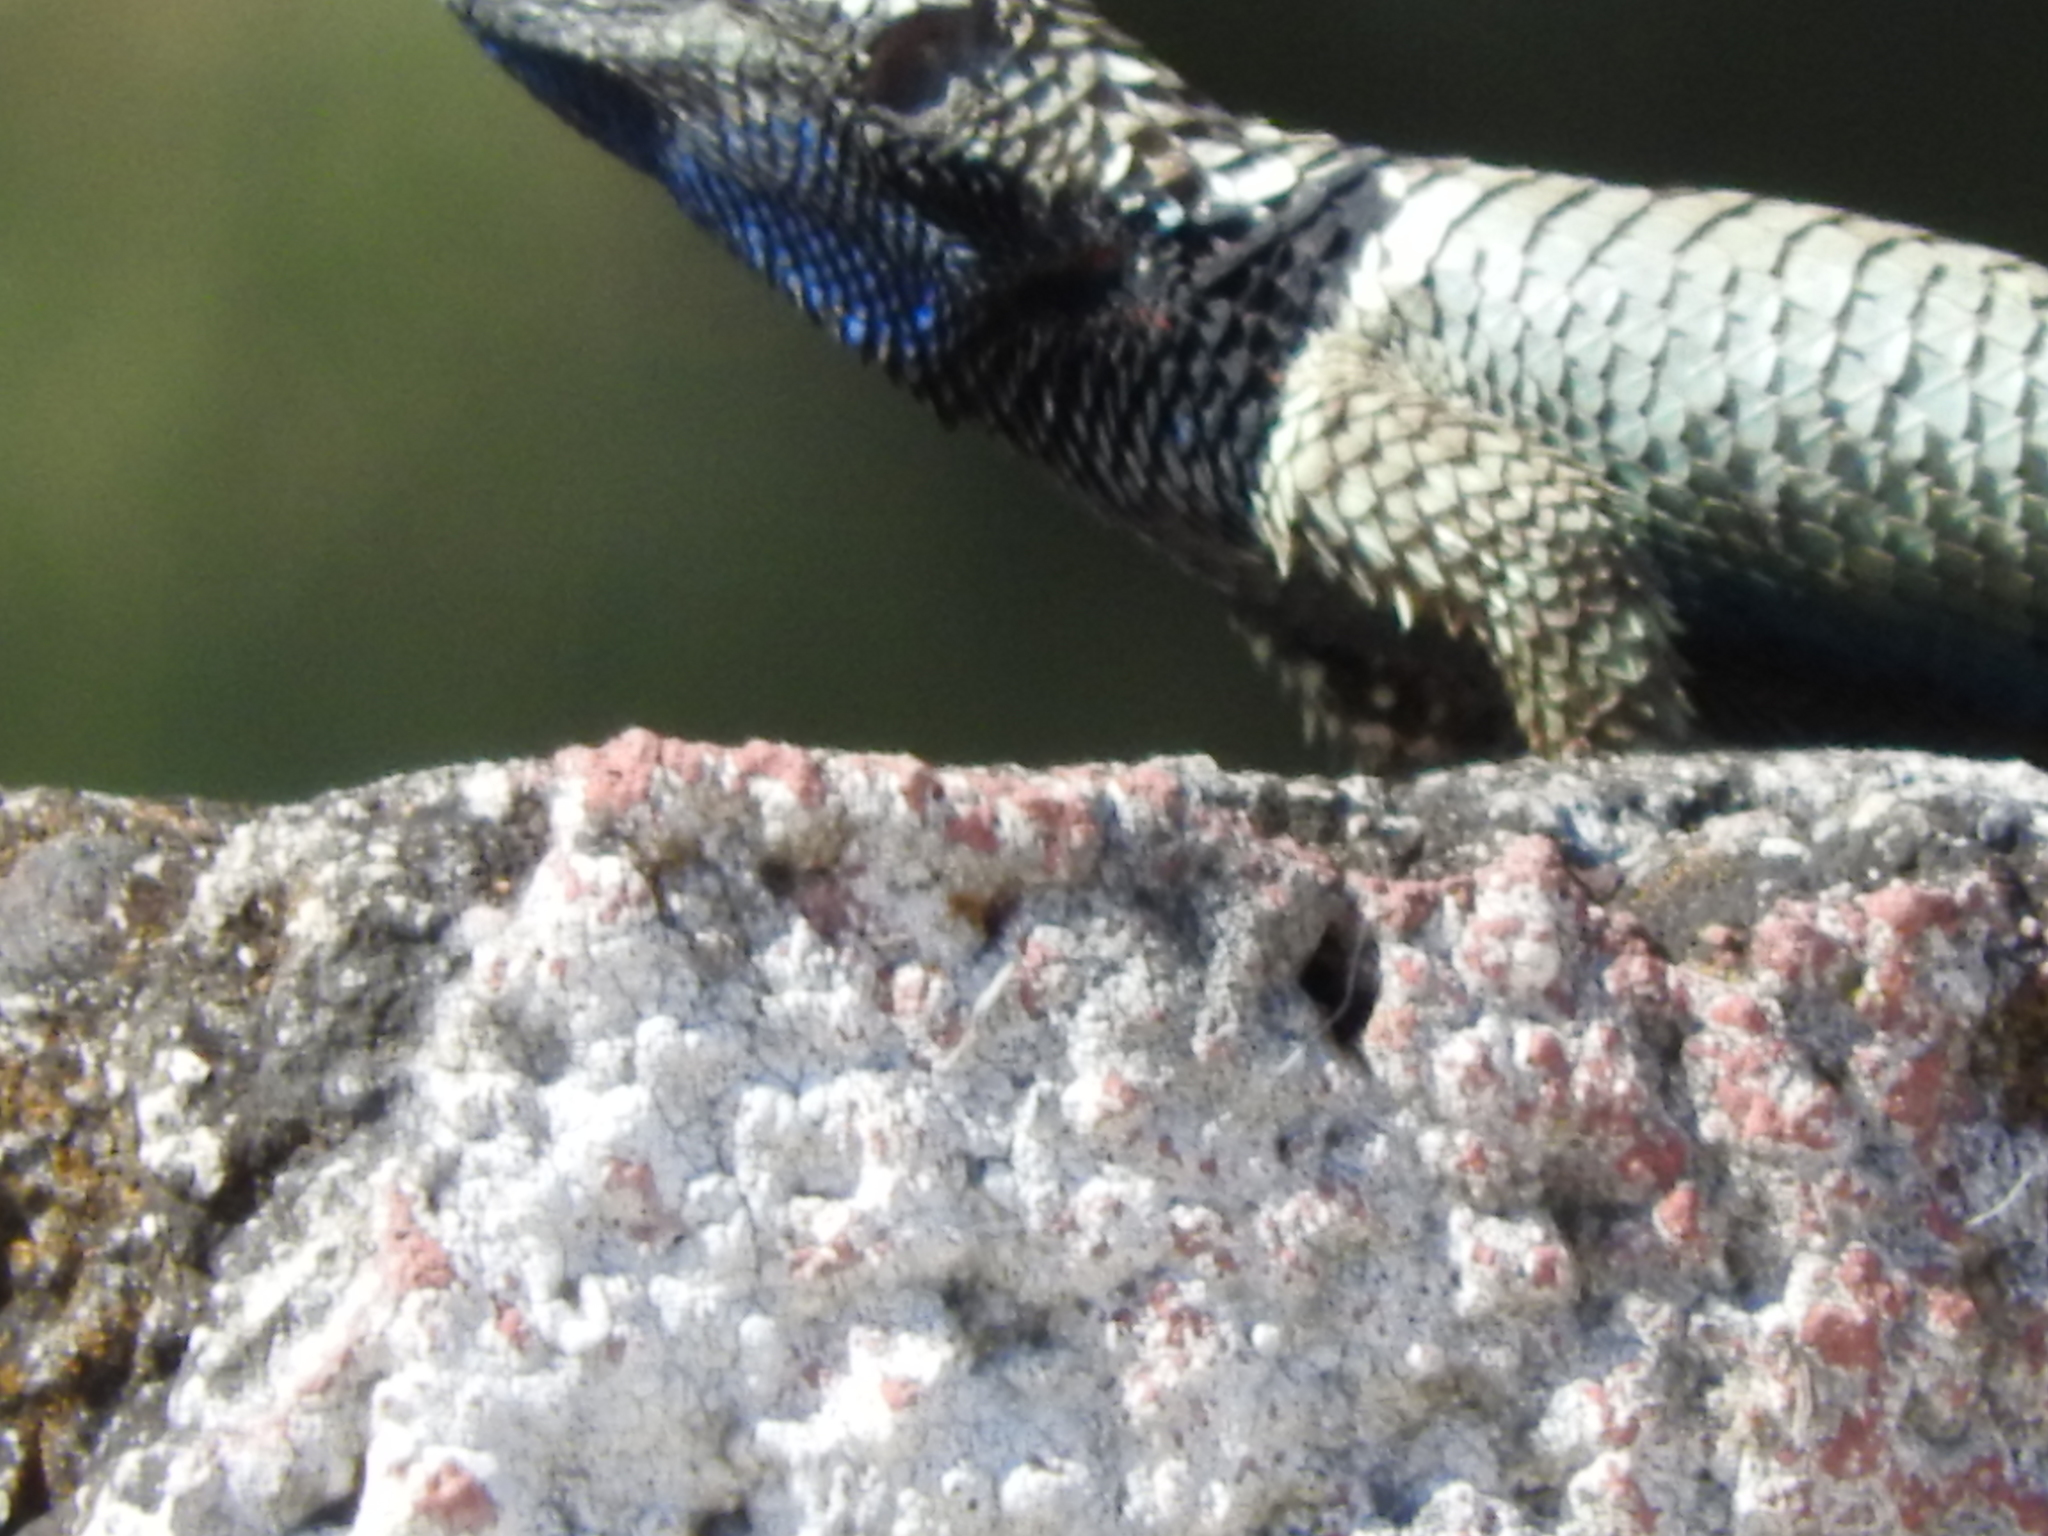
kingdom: Animalia
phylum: Chordata
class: Squamata
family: Phrynosomatidae
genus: Sceloporus
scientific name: Sceloporus torquatus
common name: Central plateau torquate lizard [melanogaster]
